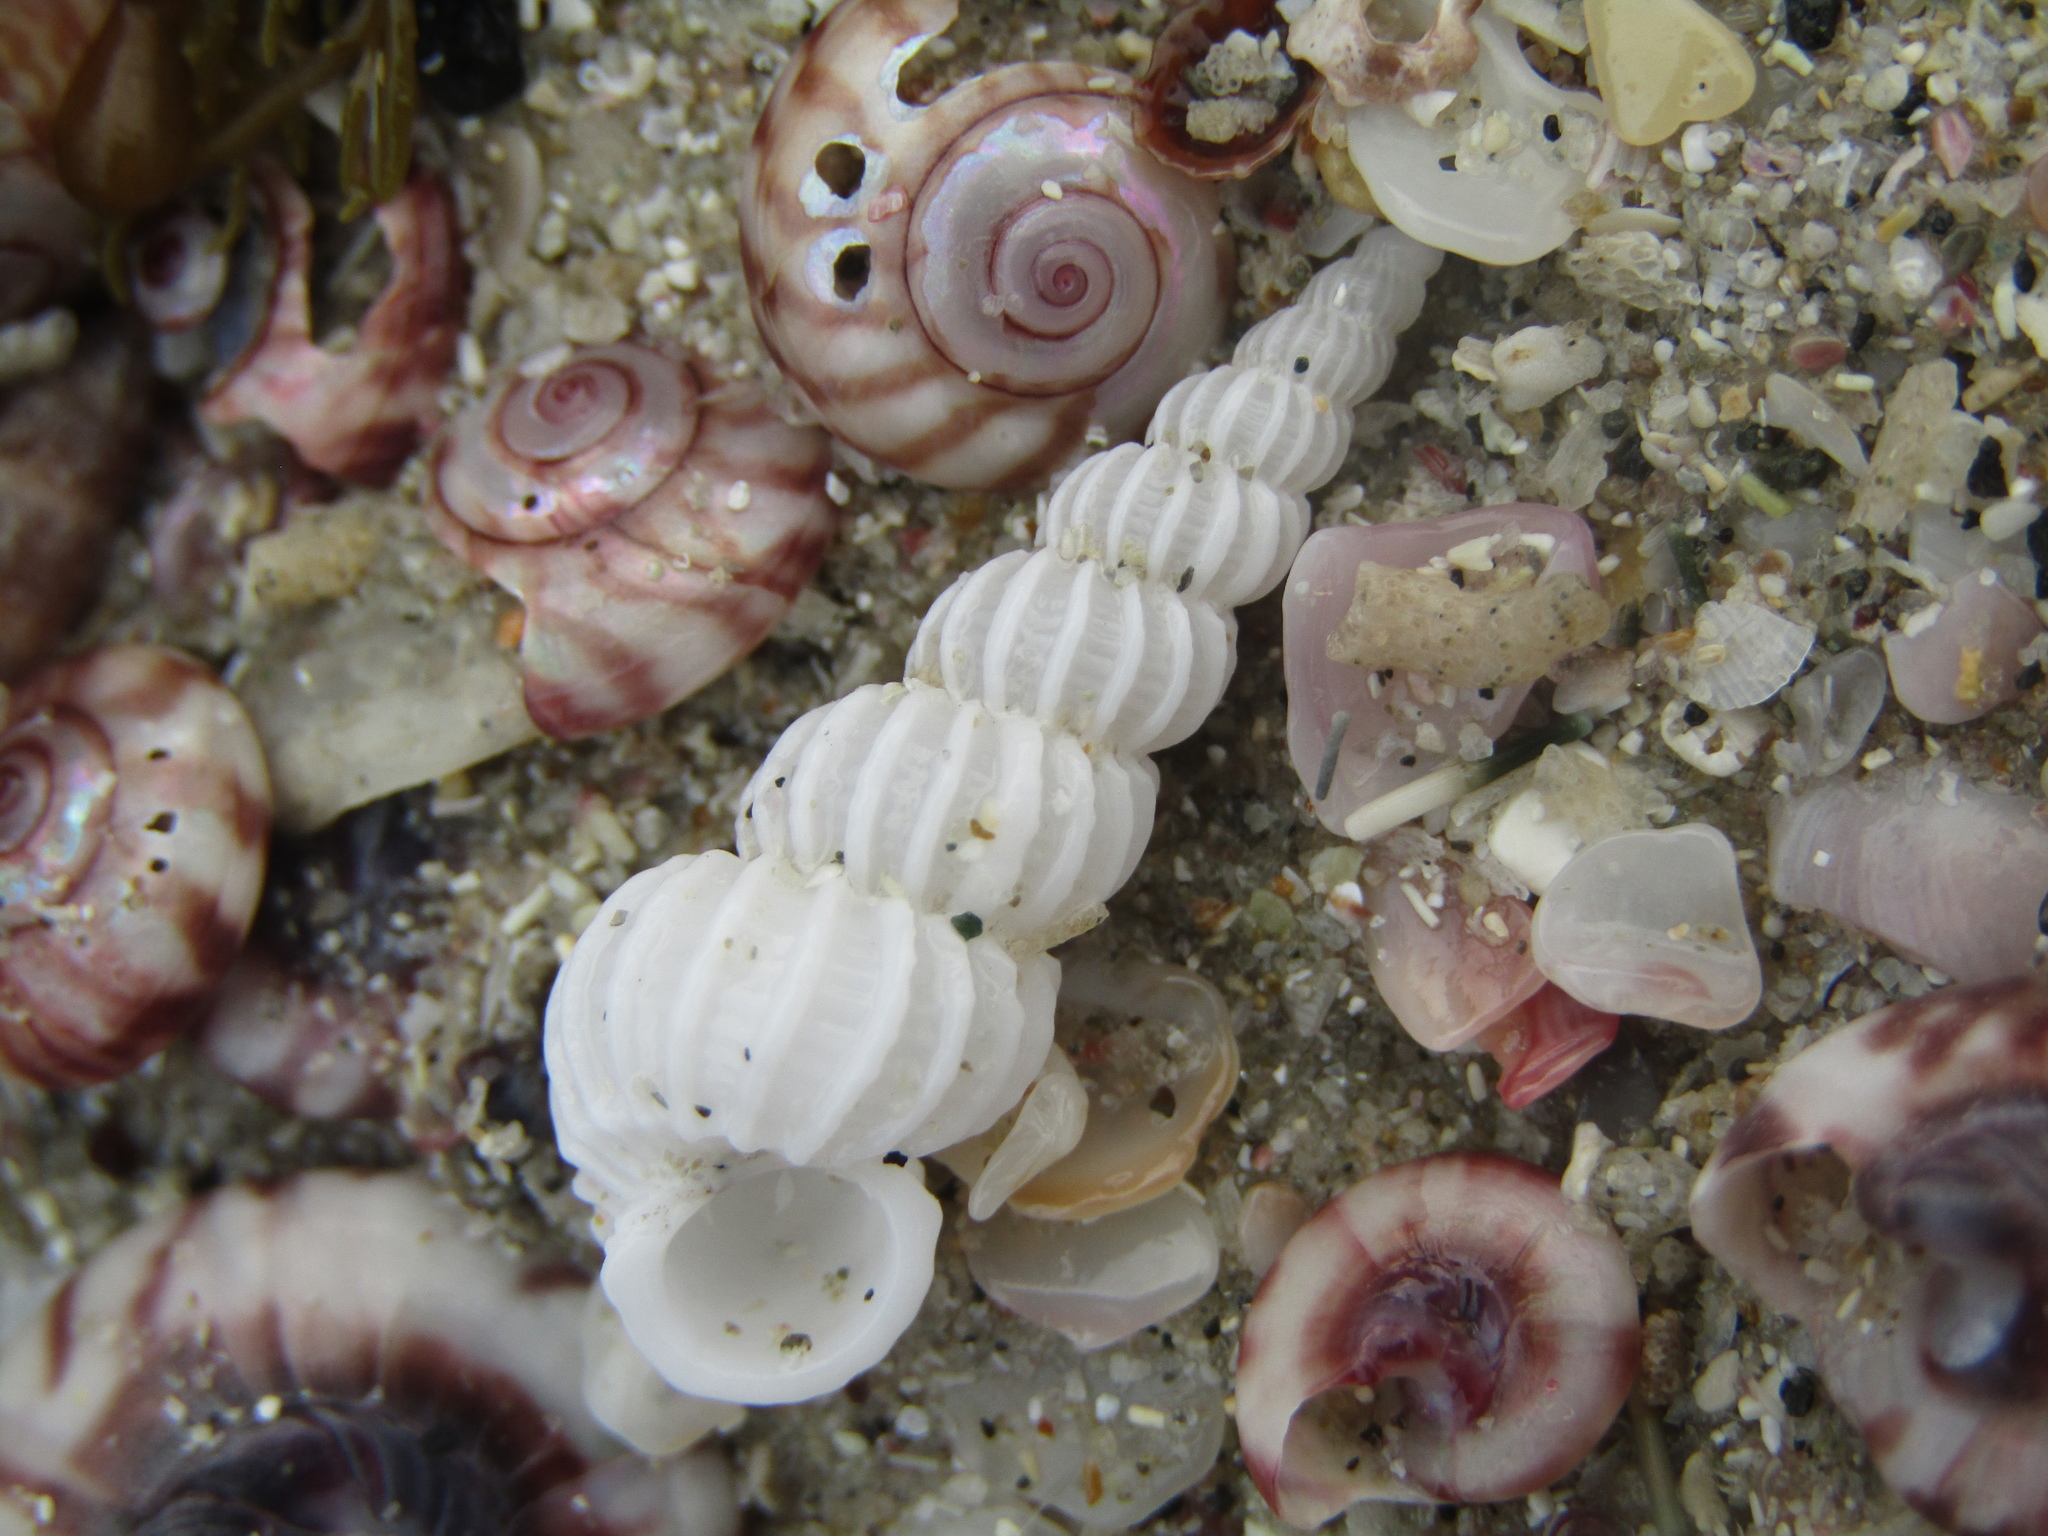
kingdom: Animalia
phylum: Mollusca
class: Gastropoda
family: Epitoniidae
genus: Cirsotrema
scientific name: Cirsotrema zelebori
